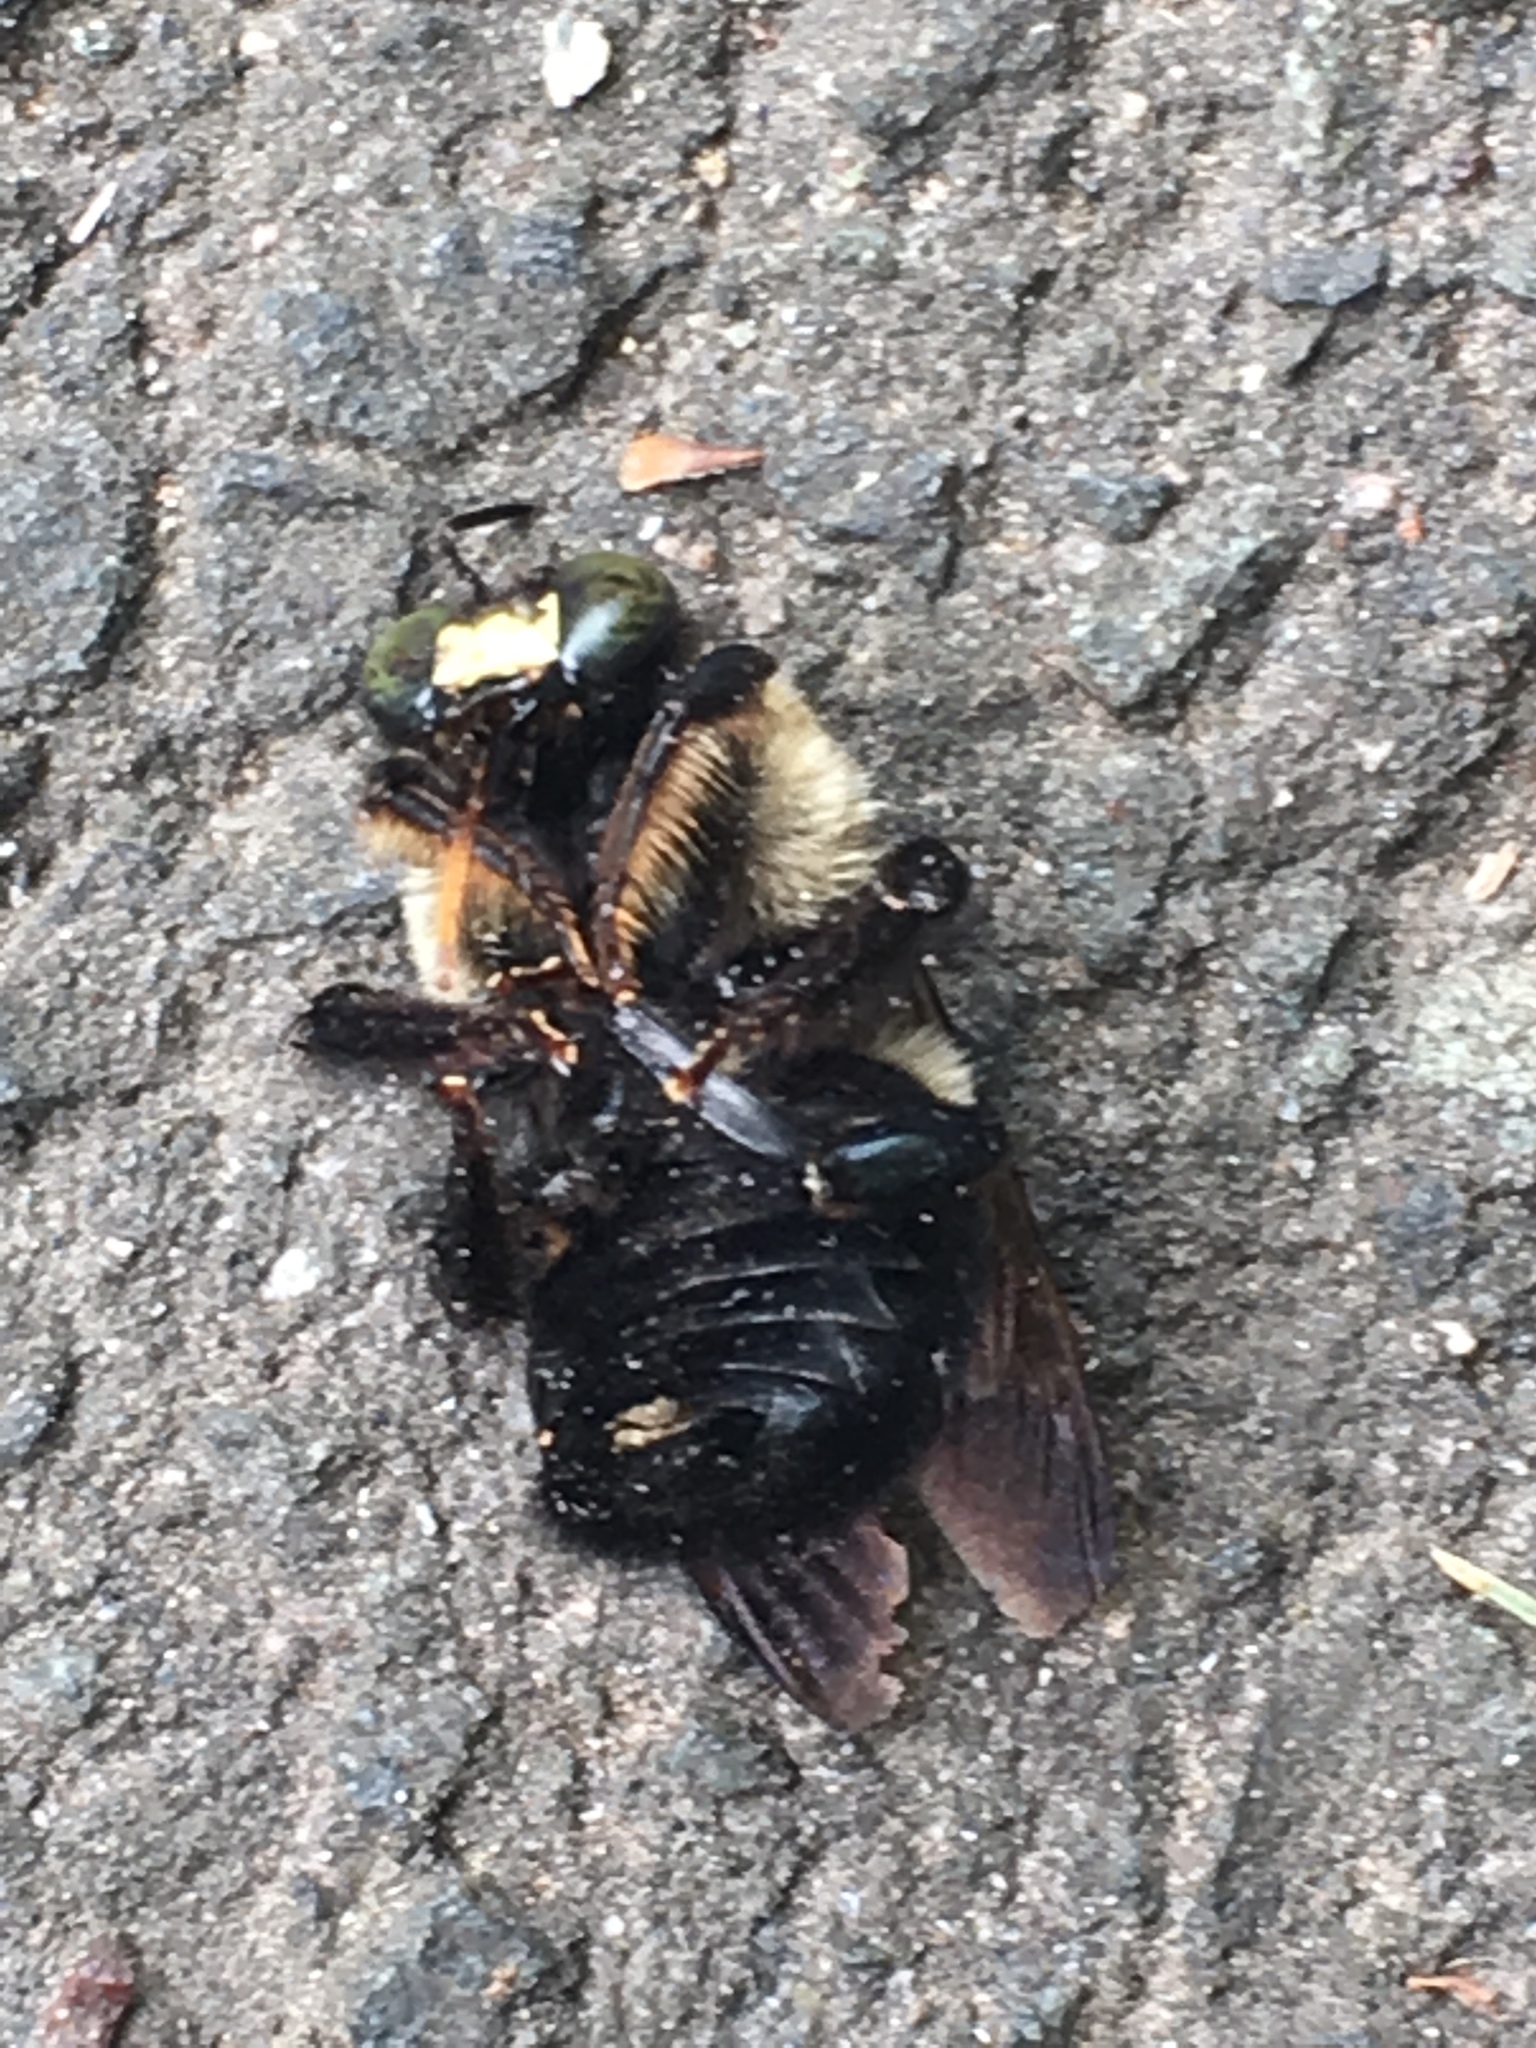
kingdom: Animalia
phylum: Arthropoda
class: Insecta
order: Hymenoptera
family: Apidae
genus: Xylocopa
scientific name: Xylocopa virginica
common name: Carpenter bee
